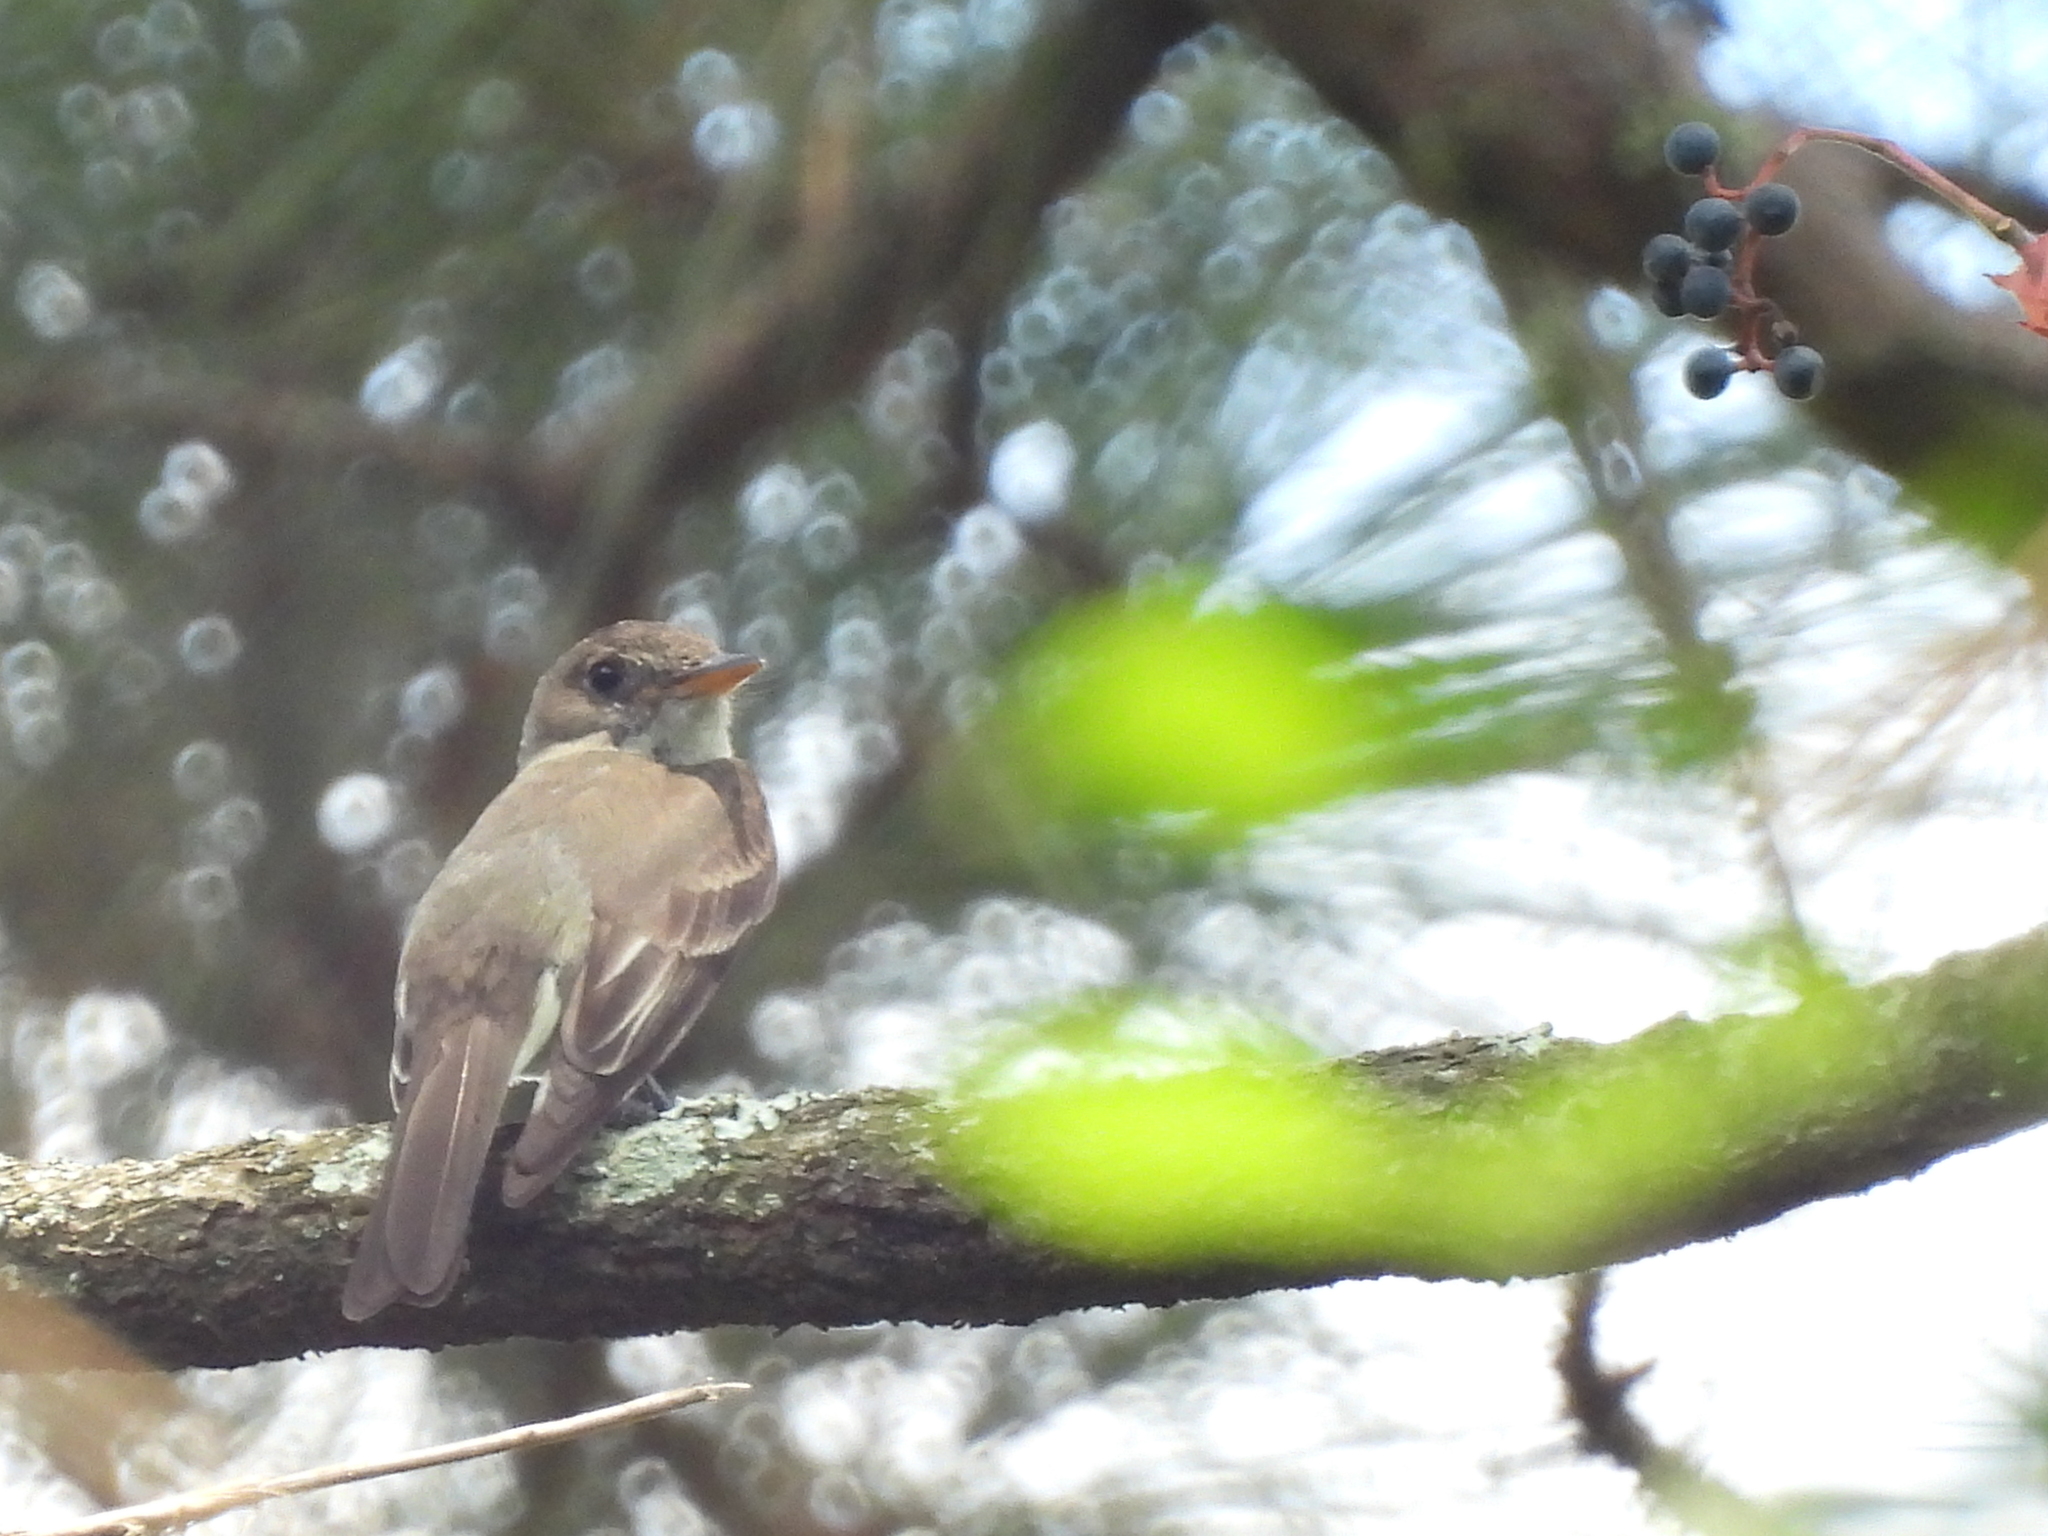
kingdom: Animalia
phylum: Chordata
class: Aves
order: Passeriformes
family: Tyrannidae
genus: Contopus
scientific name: Contopus virens
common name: Eastern wood-pewee
